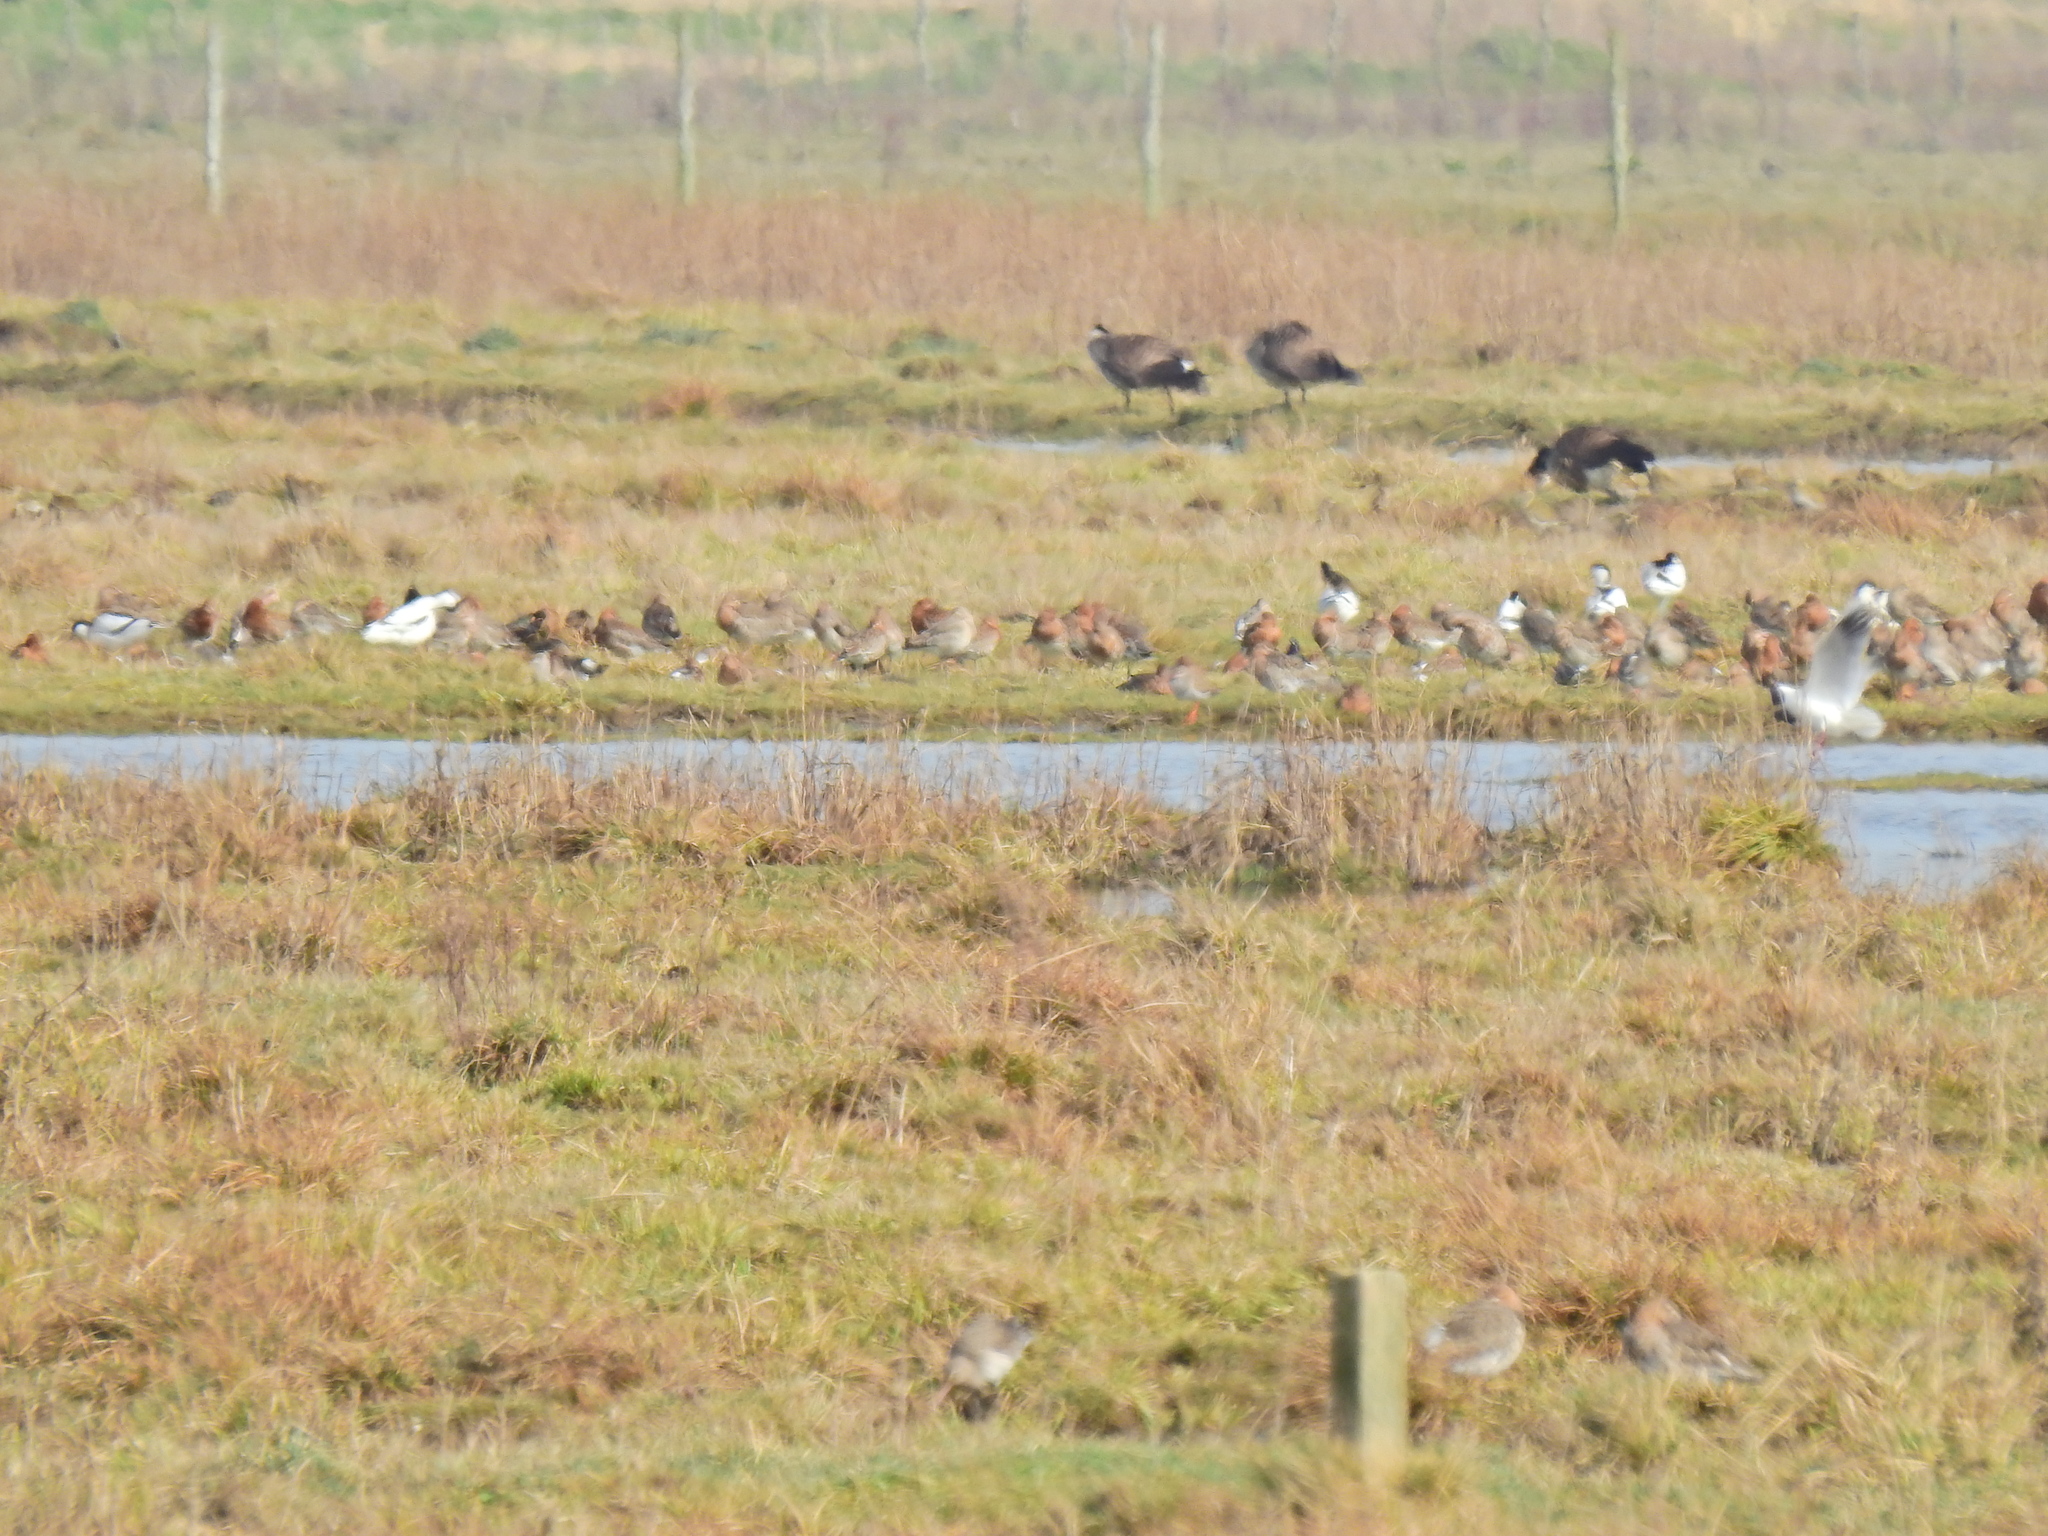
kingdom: Animalia
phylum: Chordata
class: Aves
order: Charadriiformes
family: Scolopacidae
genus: Limosa
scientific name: Limosa limosa
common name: Black-tailed godwit
